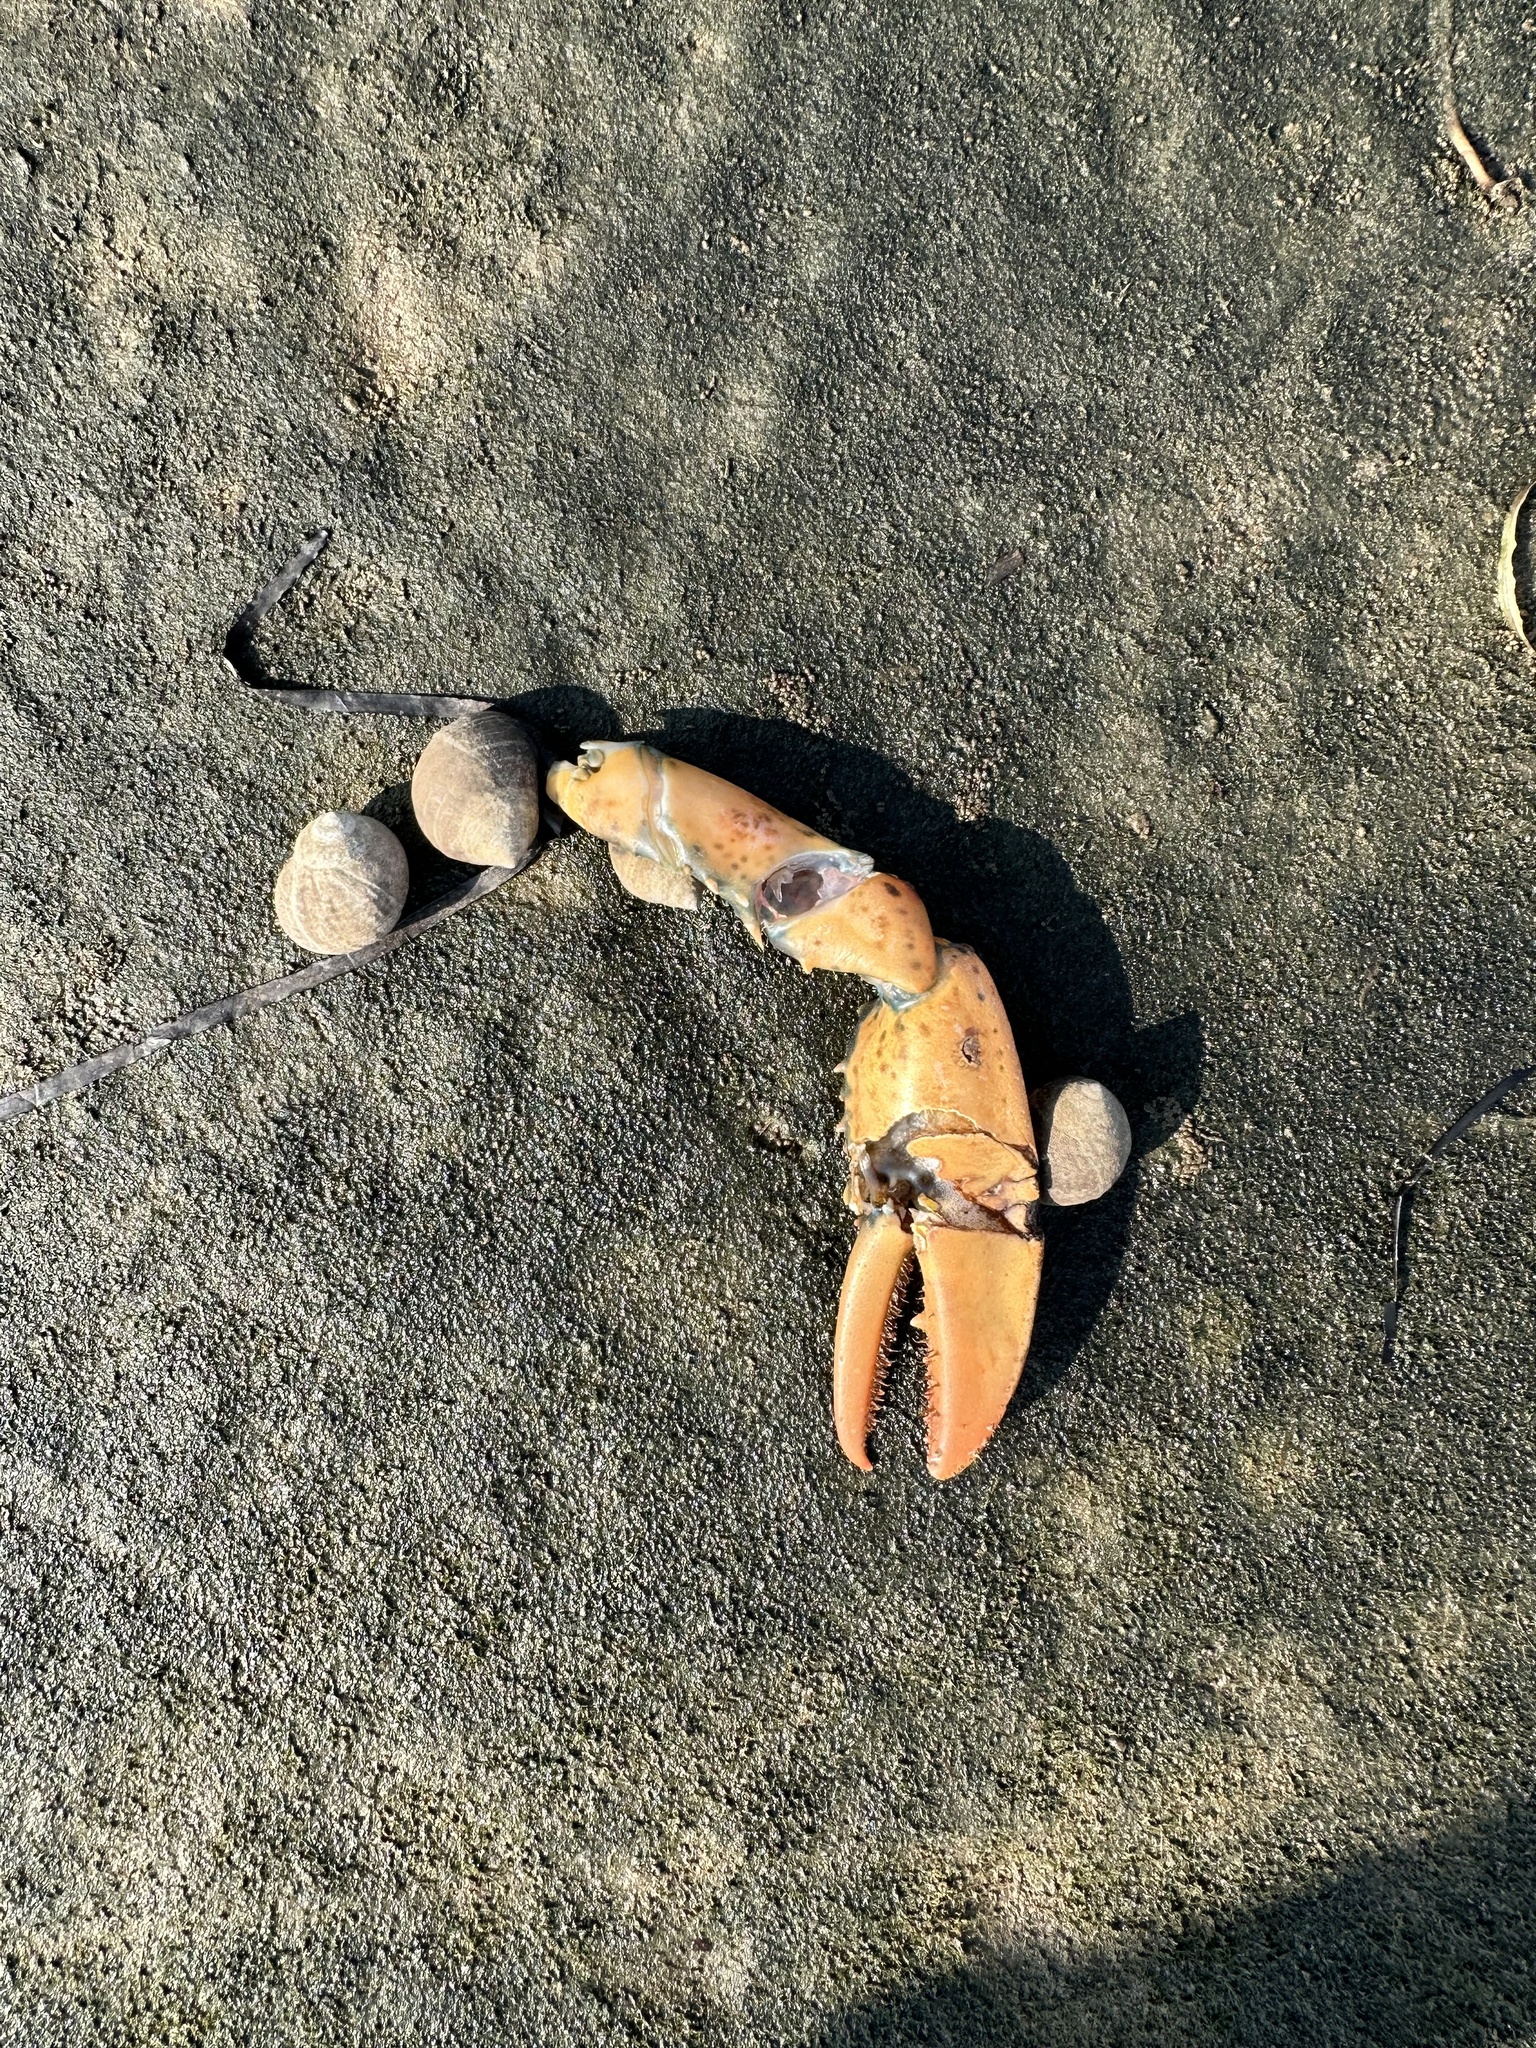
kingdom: Animalia
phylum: Arthropoda
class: Malacostraca
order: Decapoda
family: Nephropidae
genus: Homarus
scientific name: Homarus americanus
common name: American lobster
